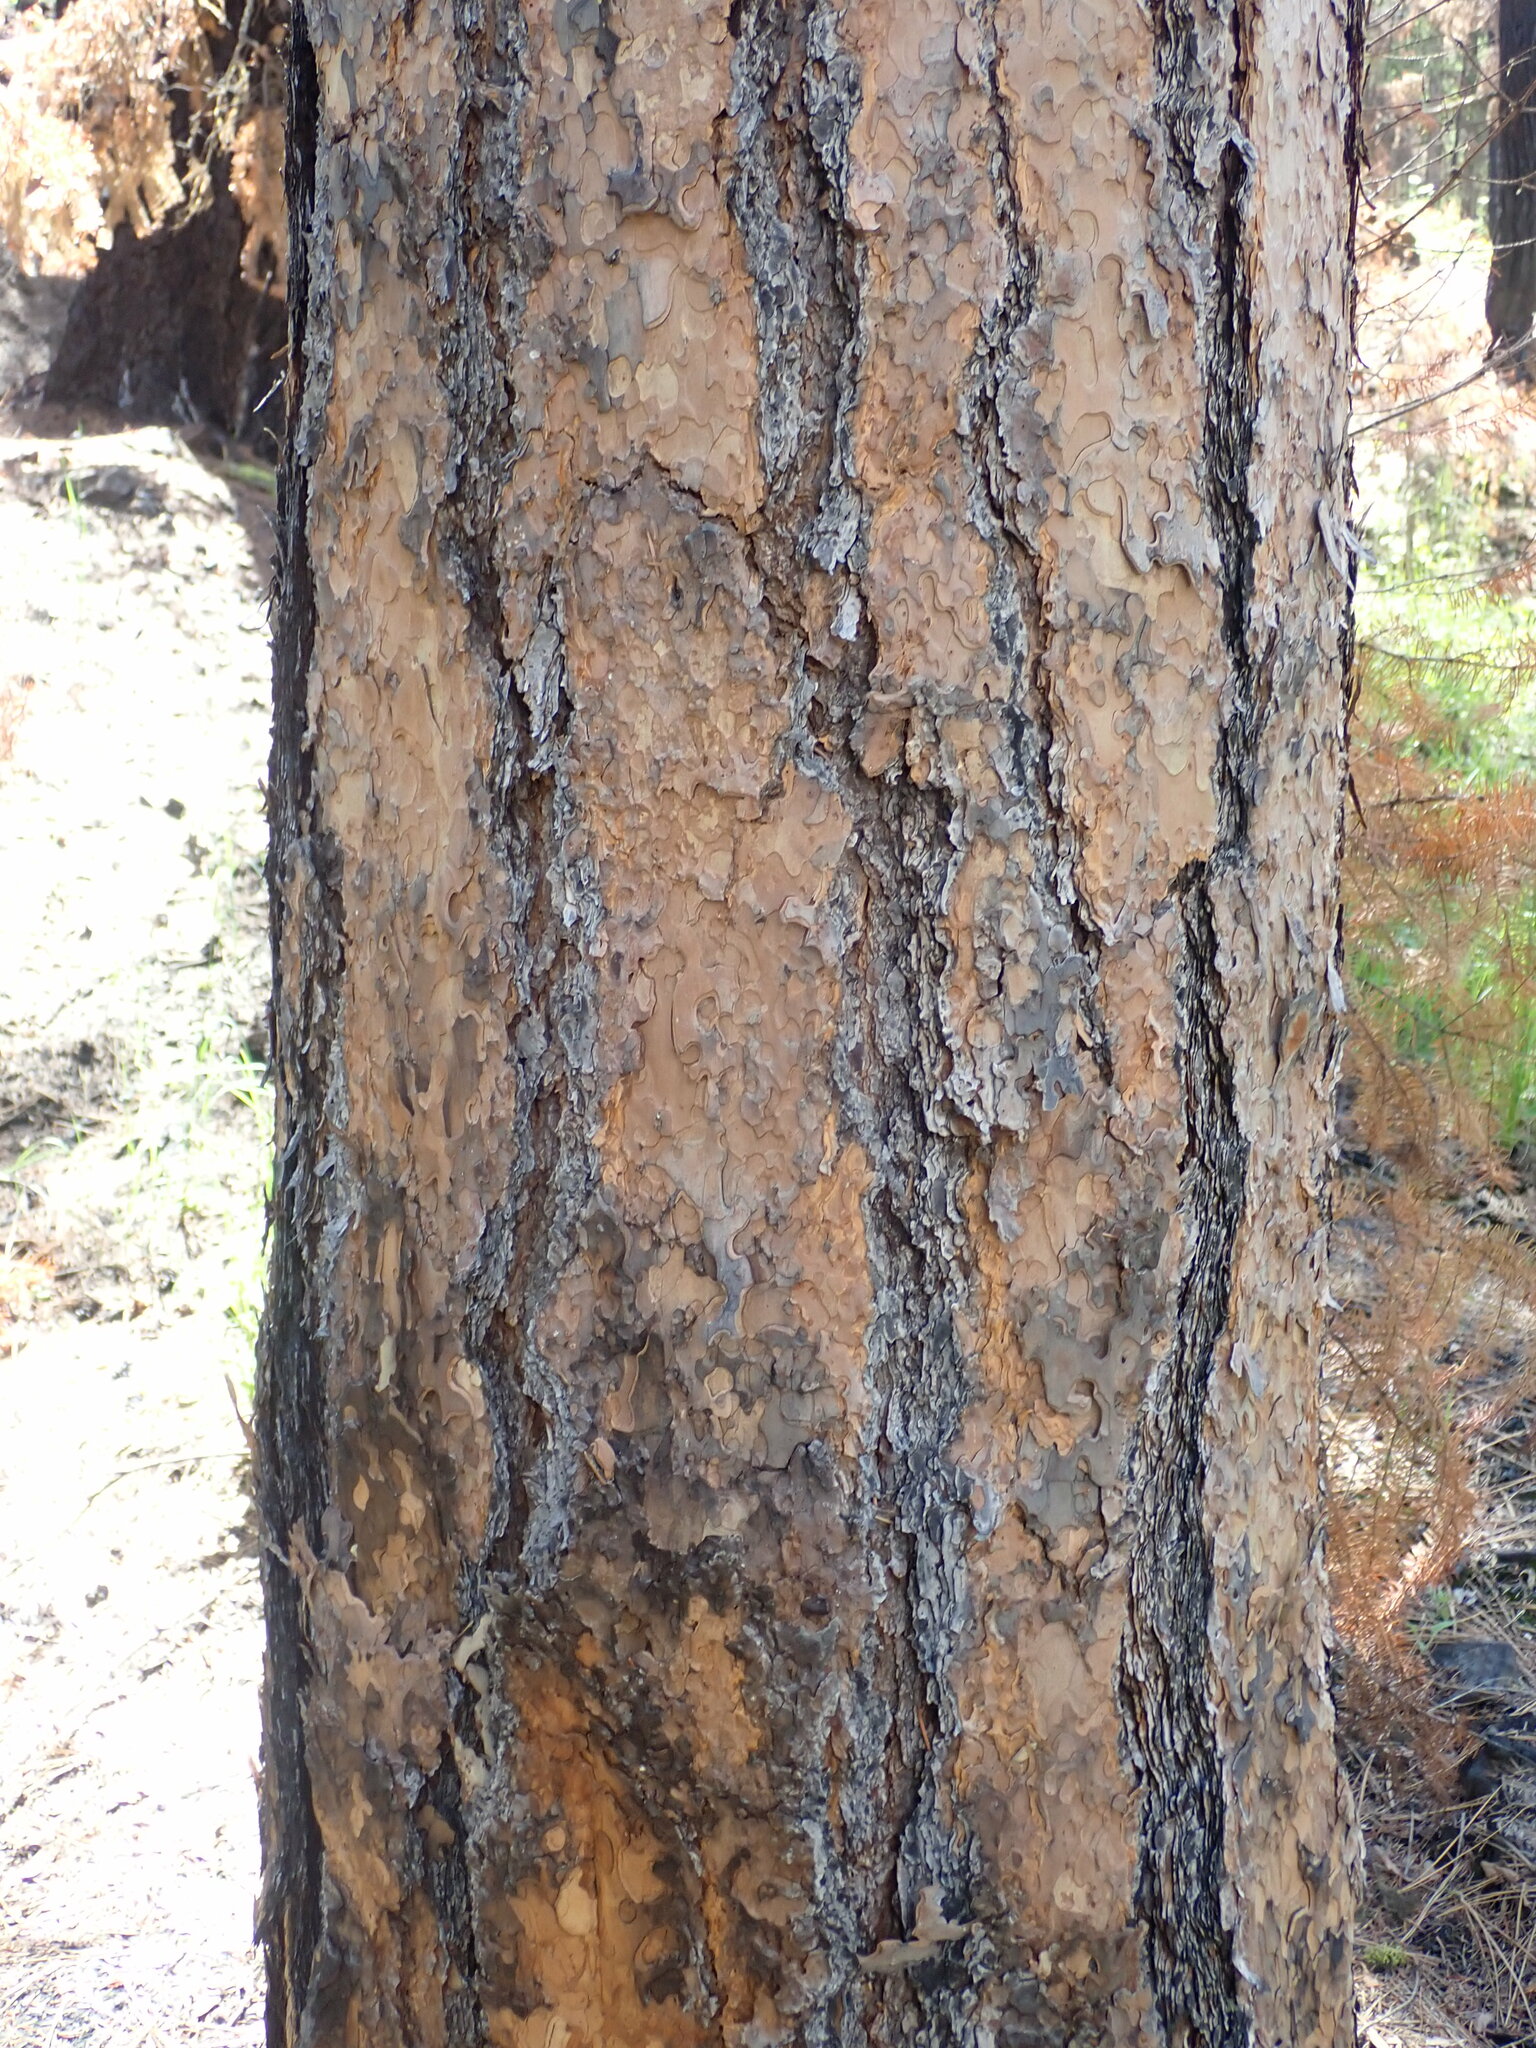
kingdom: Plantae
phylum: Tracheophyta
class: Pinopsida
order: Pinales
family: Pinaceae
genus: Pinus
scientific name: Pinus ponderosa
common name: Western yellow-pine
